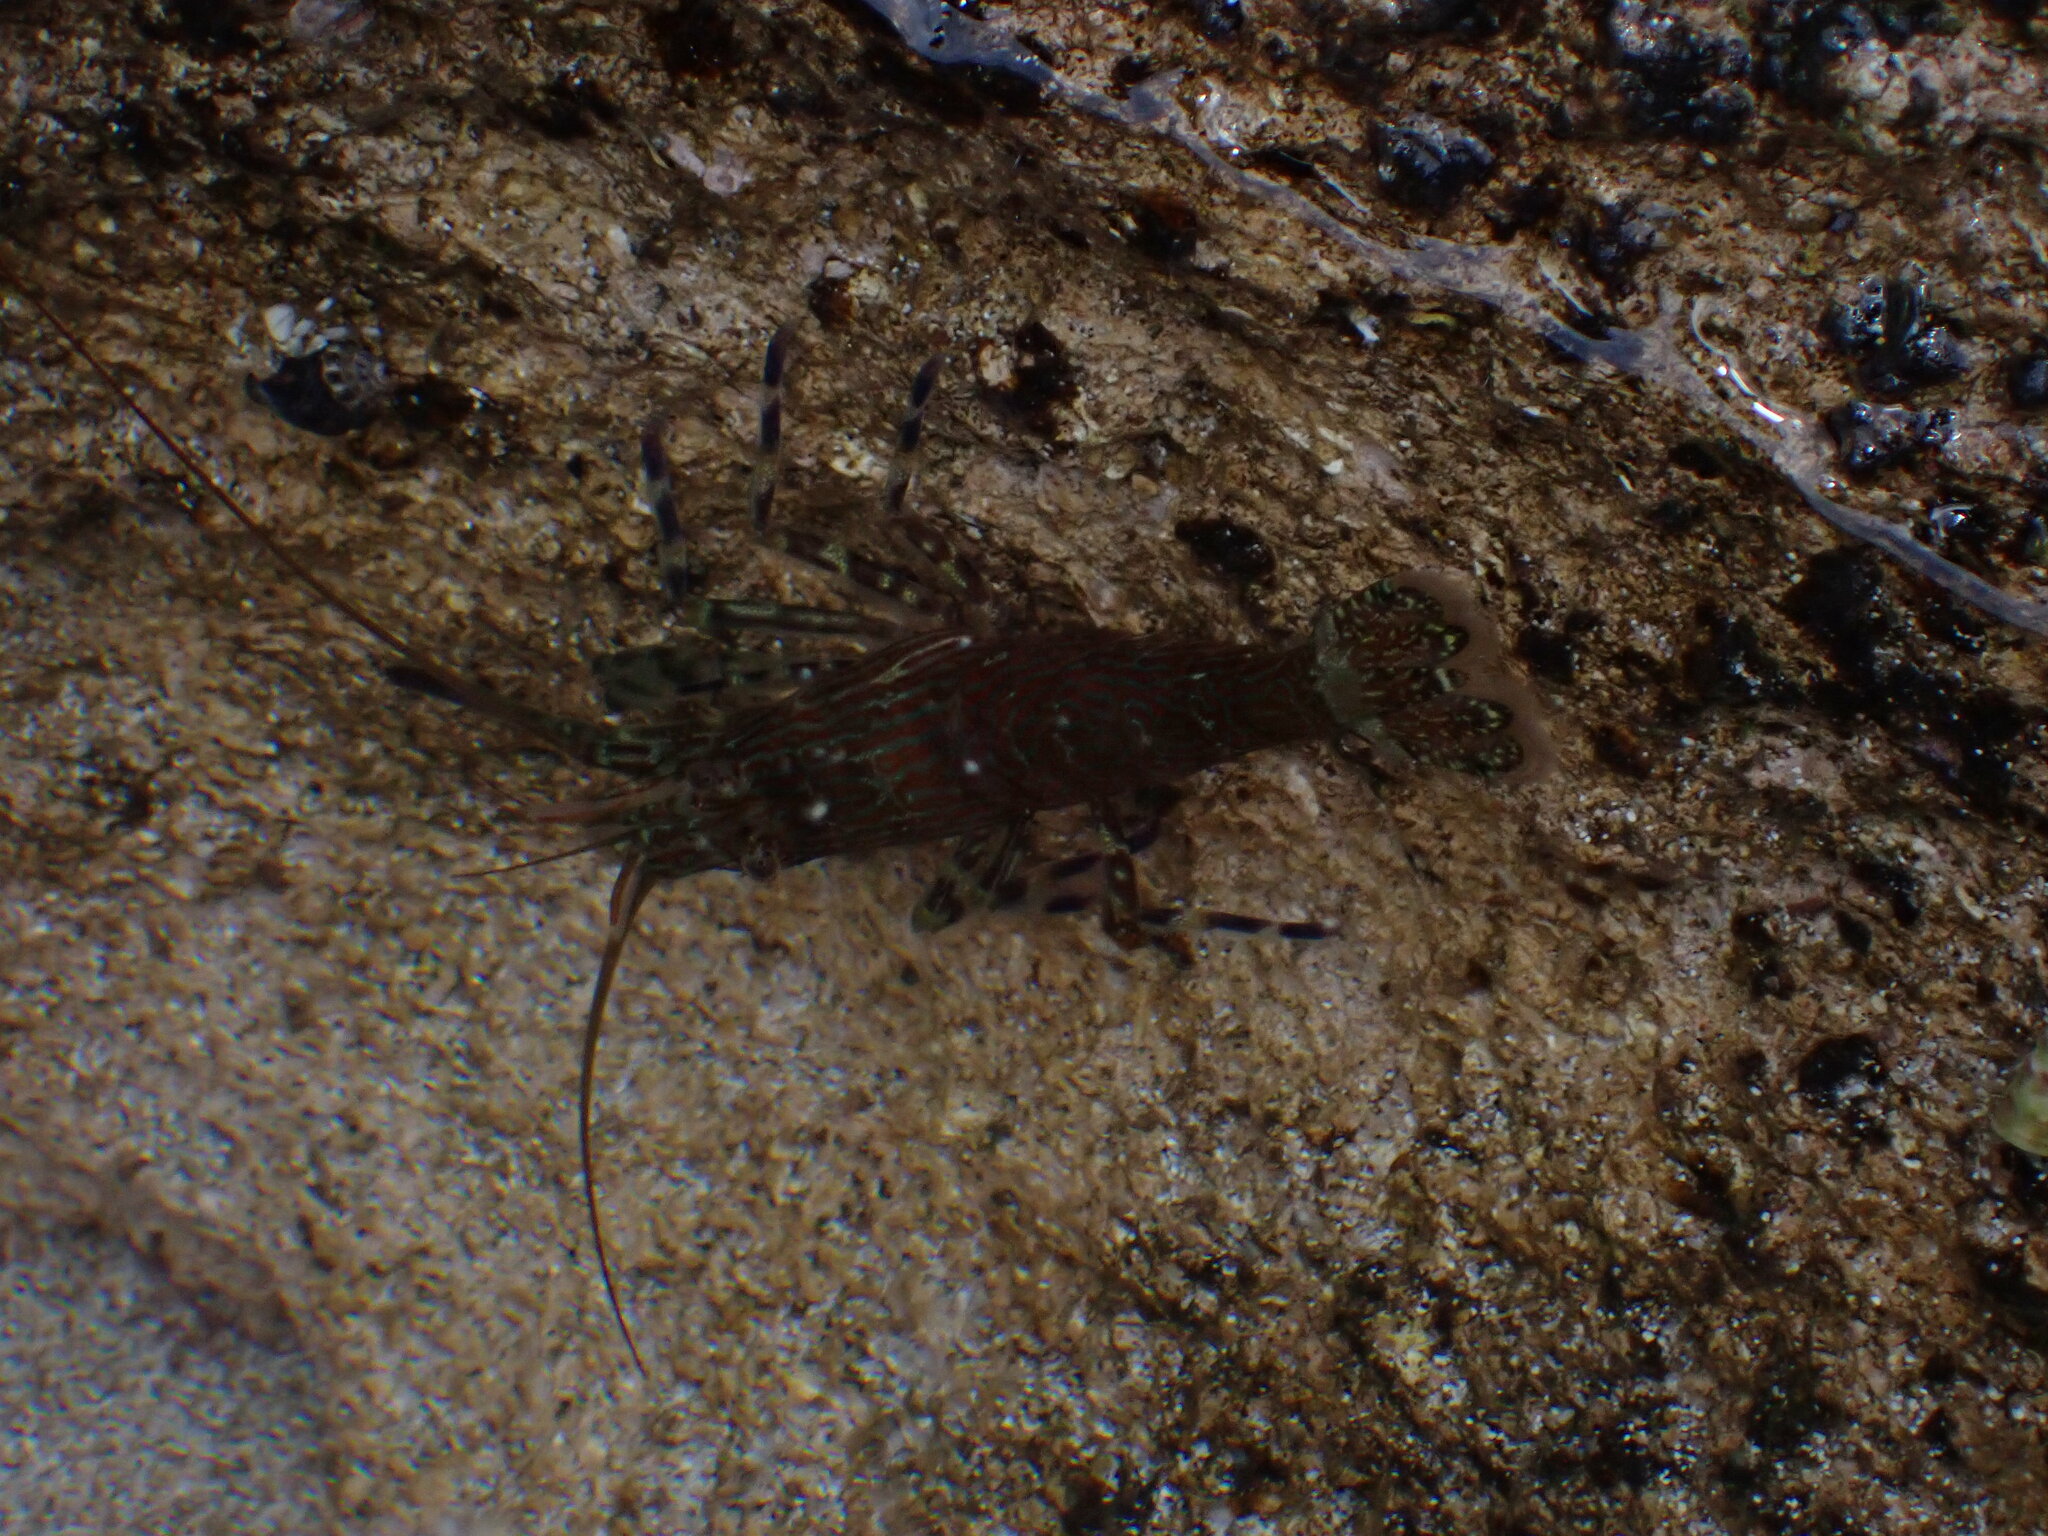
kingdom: Animalia
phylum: Arthropoda
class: Malacostraca
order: Decapoda
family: Hippolytidae
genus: Alope
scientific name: Alope spinifrons
